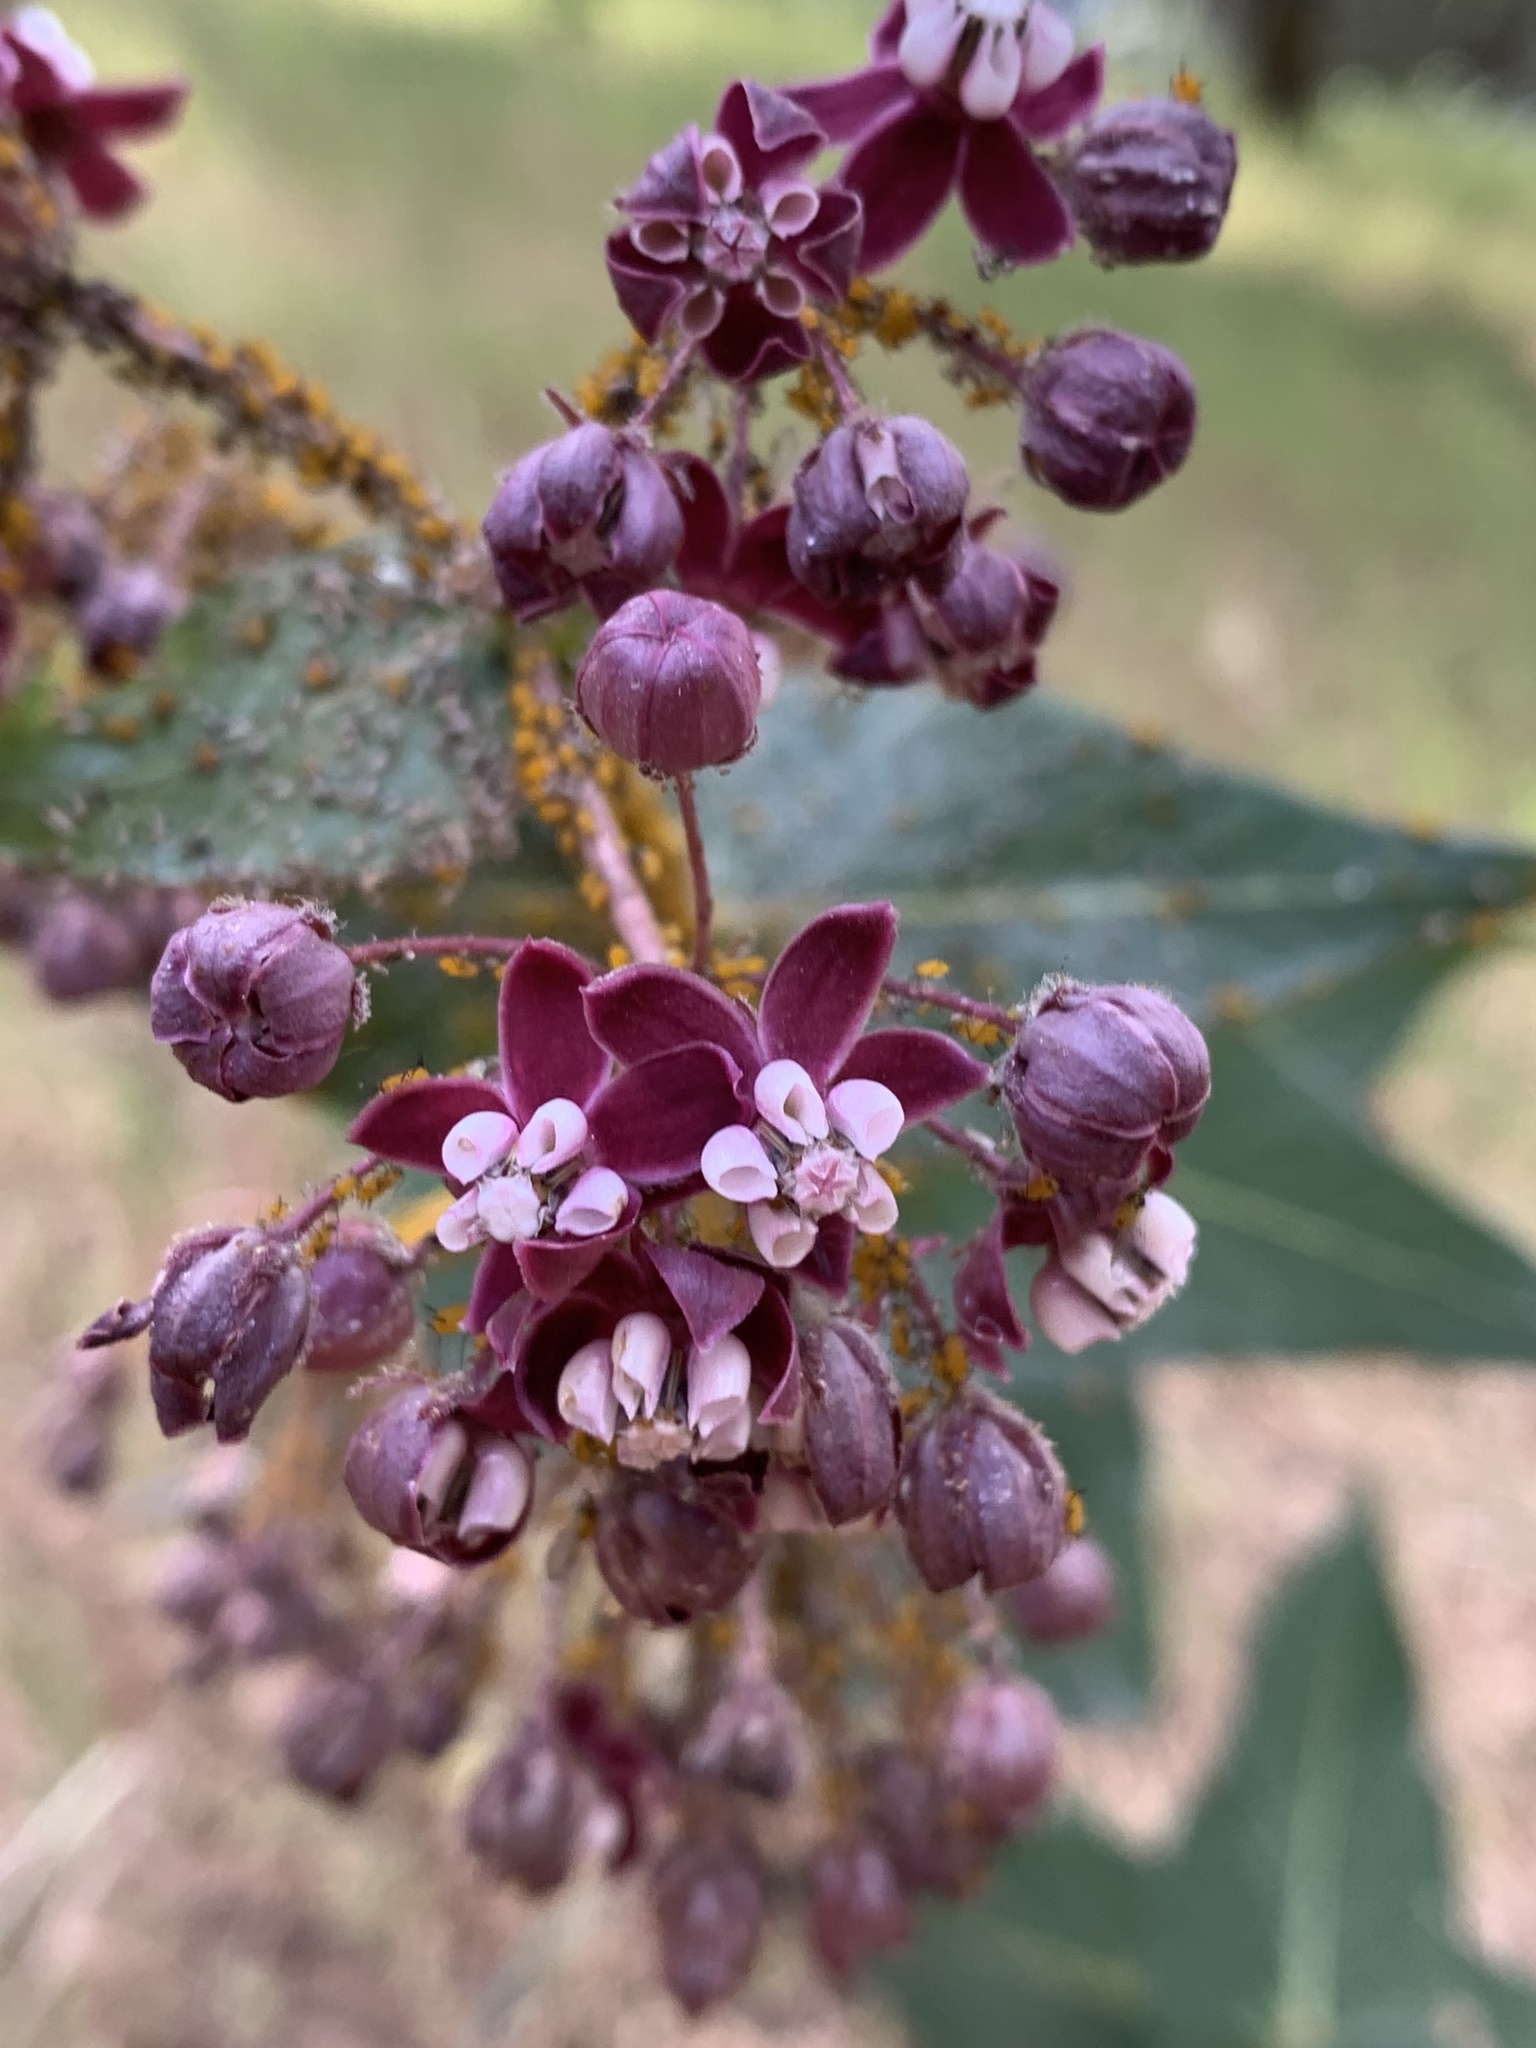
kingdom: Plantae
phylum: Tracheophyta
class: Magnoliopsida
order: Gentianales
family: Apocynaceae
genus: Asclepias
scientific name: Asclepias cordifolia
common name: Purple milkweed
